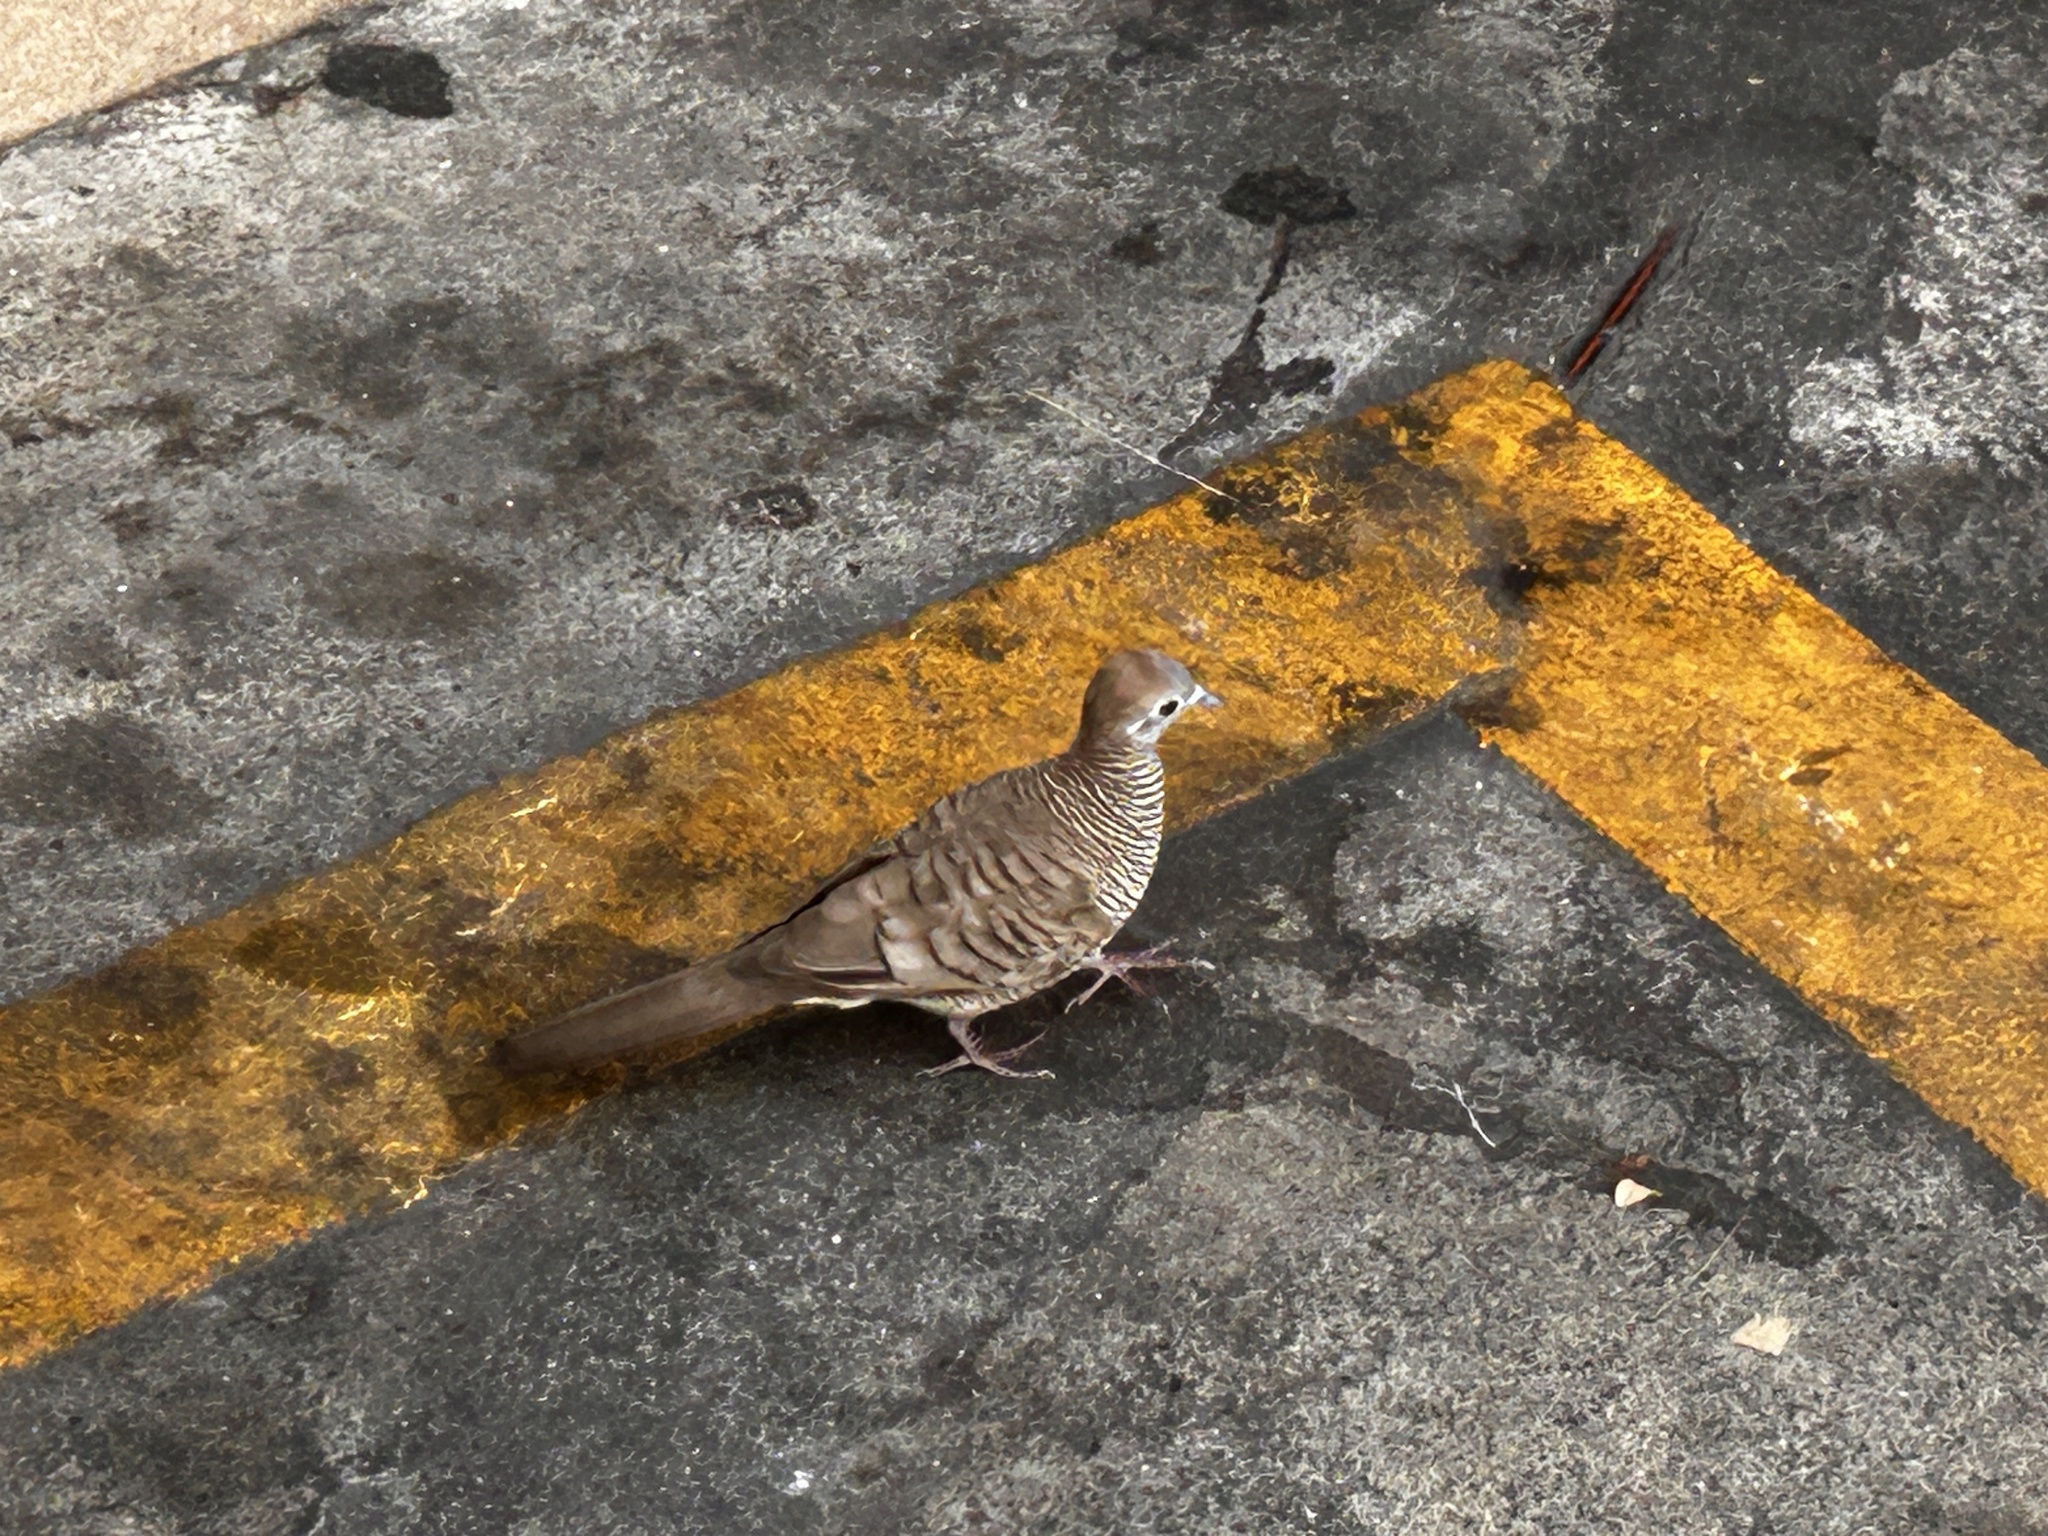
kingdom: Animalia
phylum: Chordata
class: Aves
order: Columbiformes
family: Columbidae
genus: Geopelia
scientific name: Geopelia striata
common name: Zebra dove
